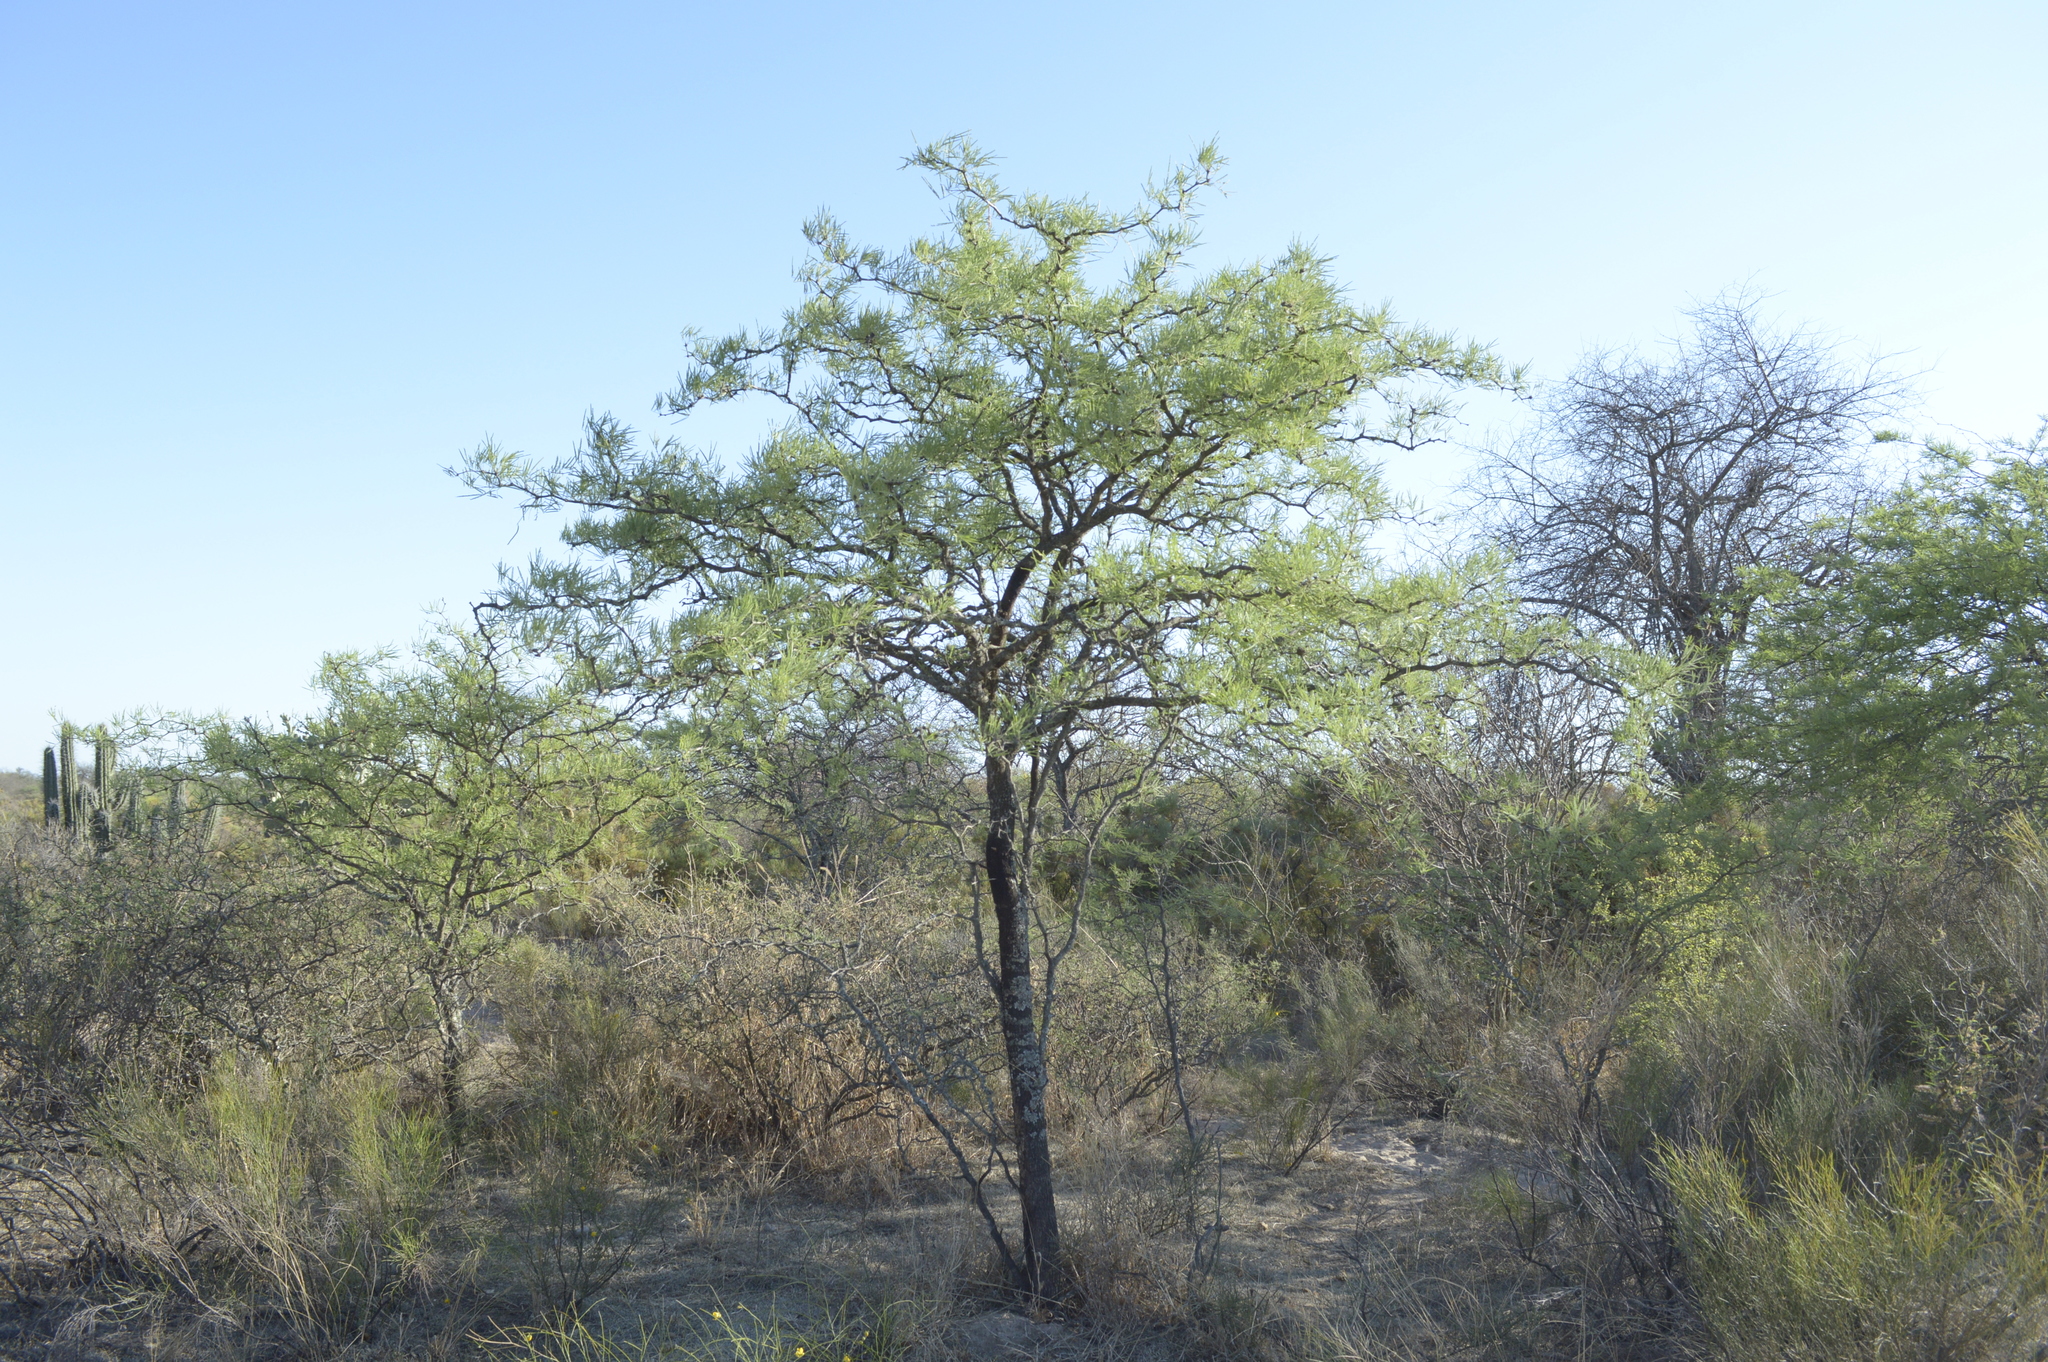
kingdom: Plantae
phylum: Tracheophyta
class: Magnoliopsida
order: Fabales
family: Fabaceae
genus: Prosopis
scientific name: Prosopis nigra
